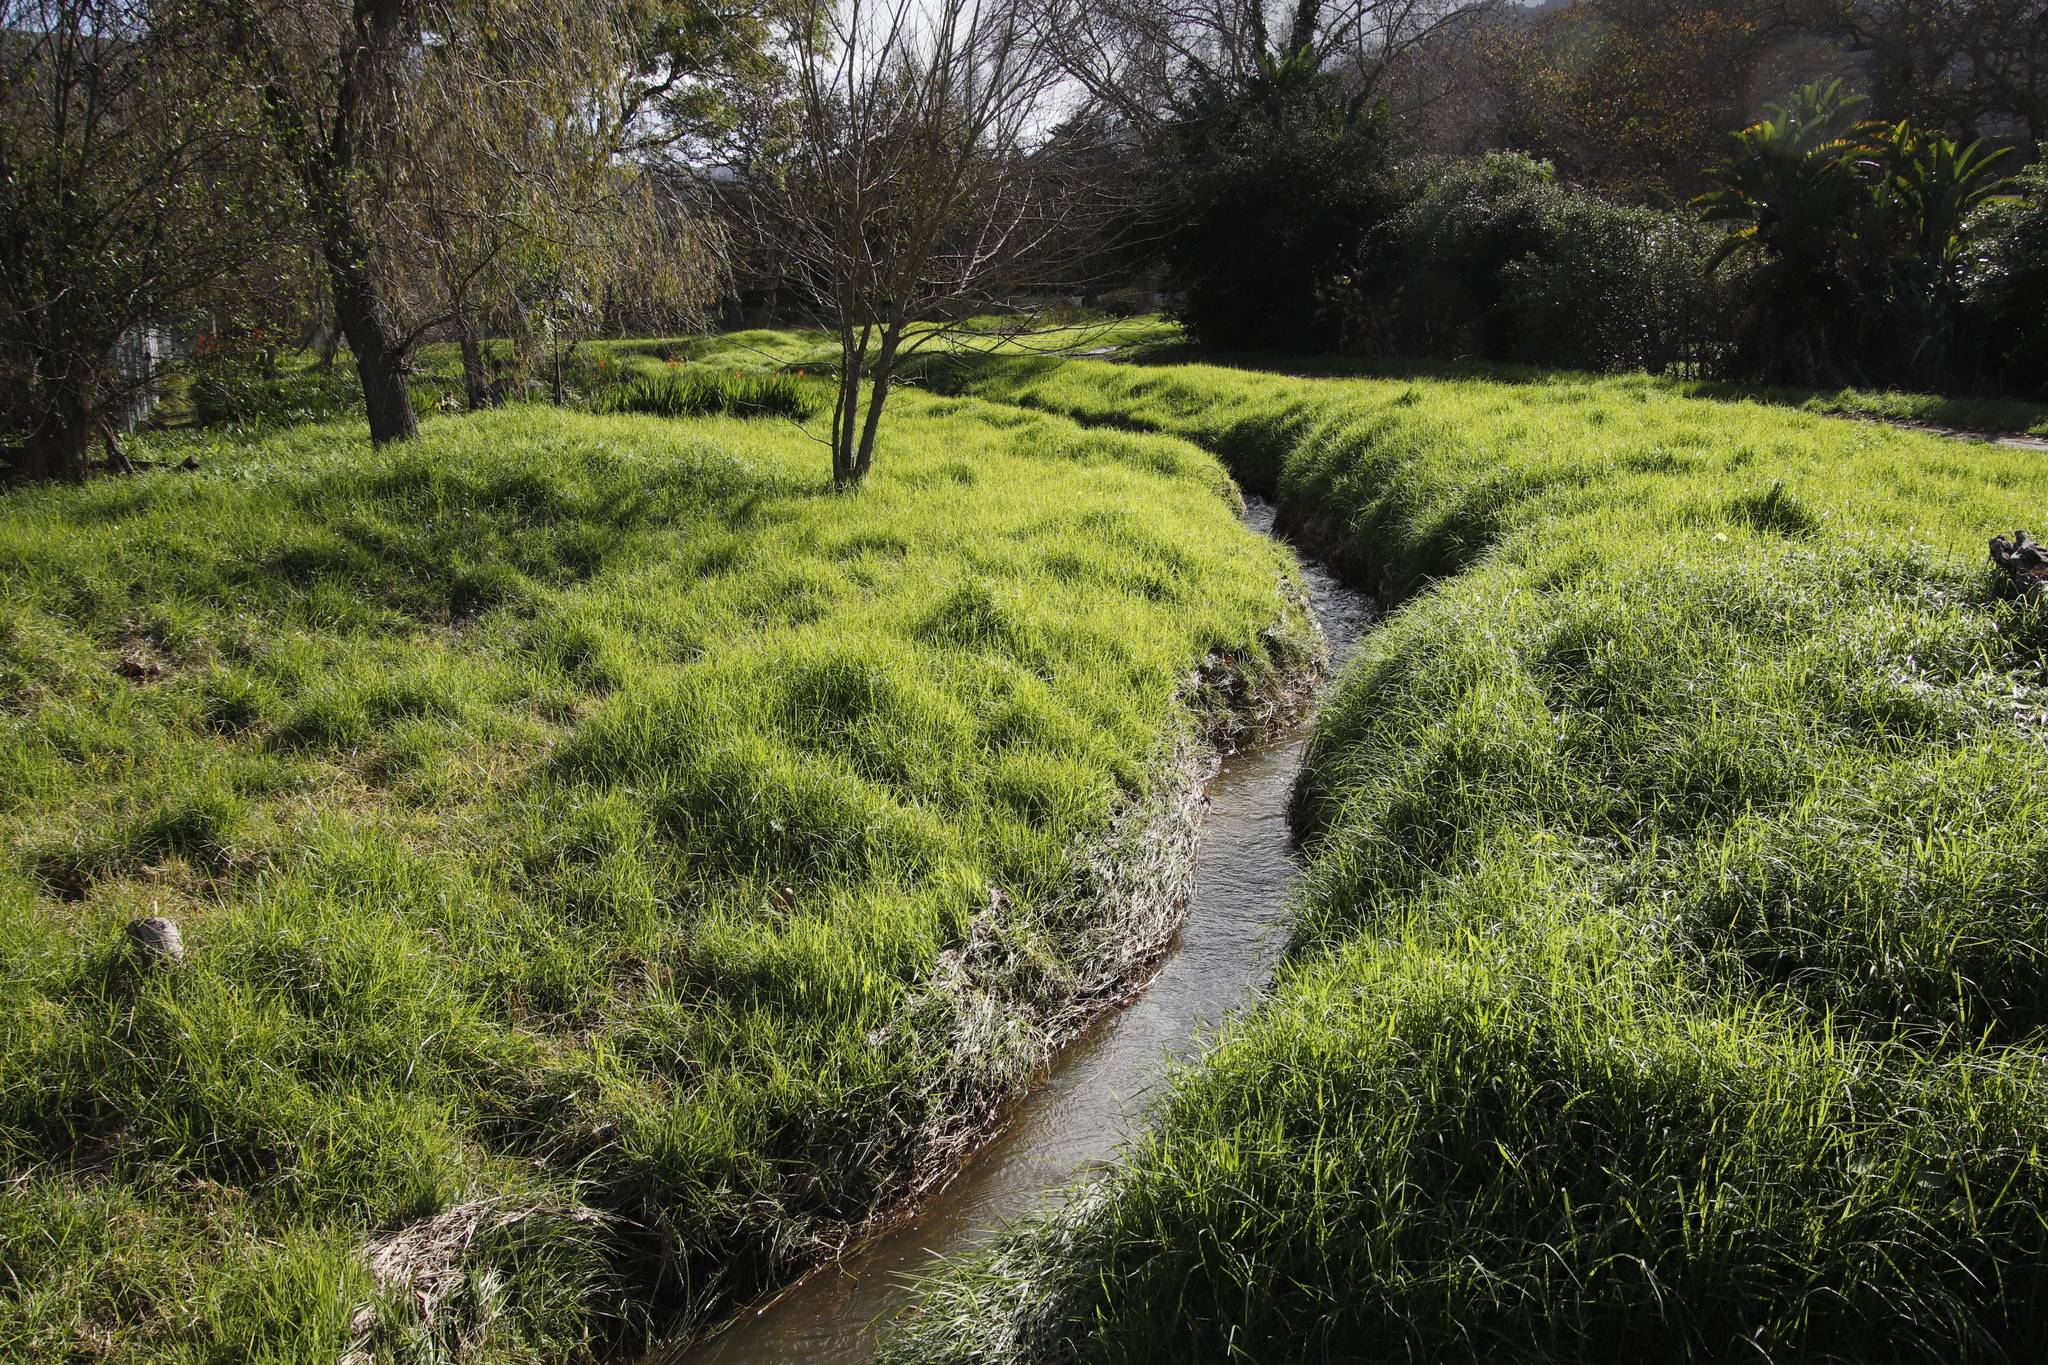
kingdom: Plantae
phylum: Tracheophyta
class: Liliopsida
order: Poales
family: Poaceae
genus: Cenchrus
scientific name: Cenchrus clandestinus
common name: Kikuyugrass
